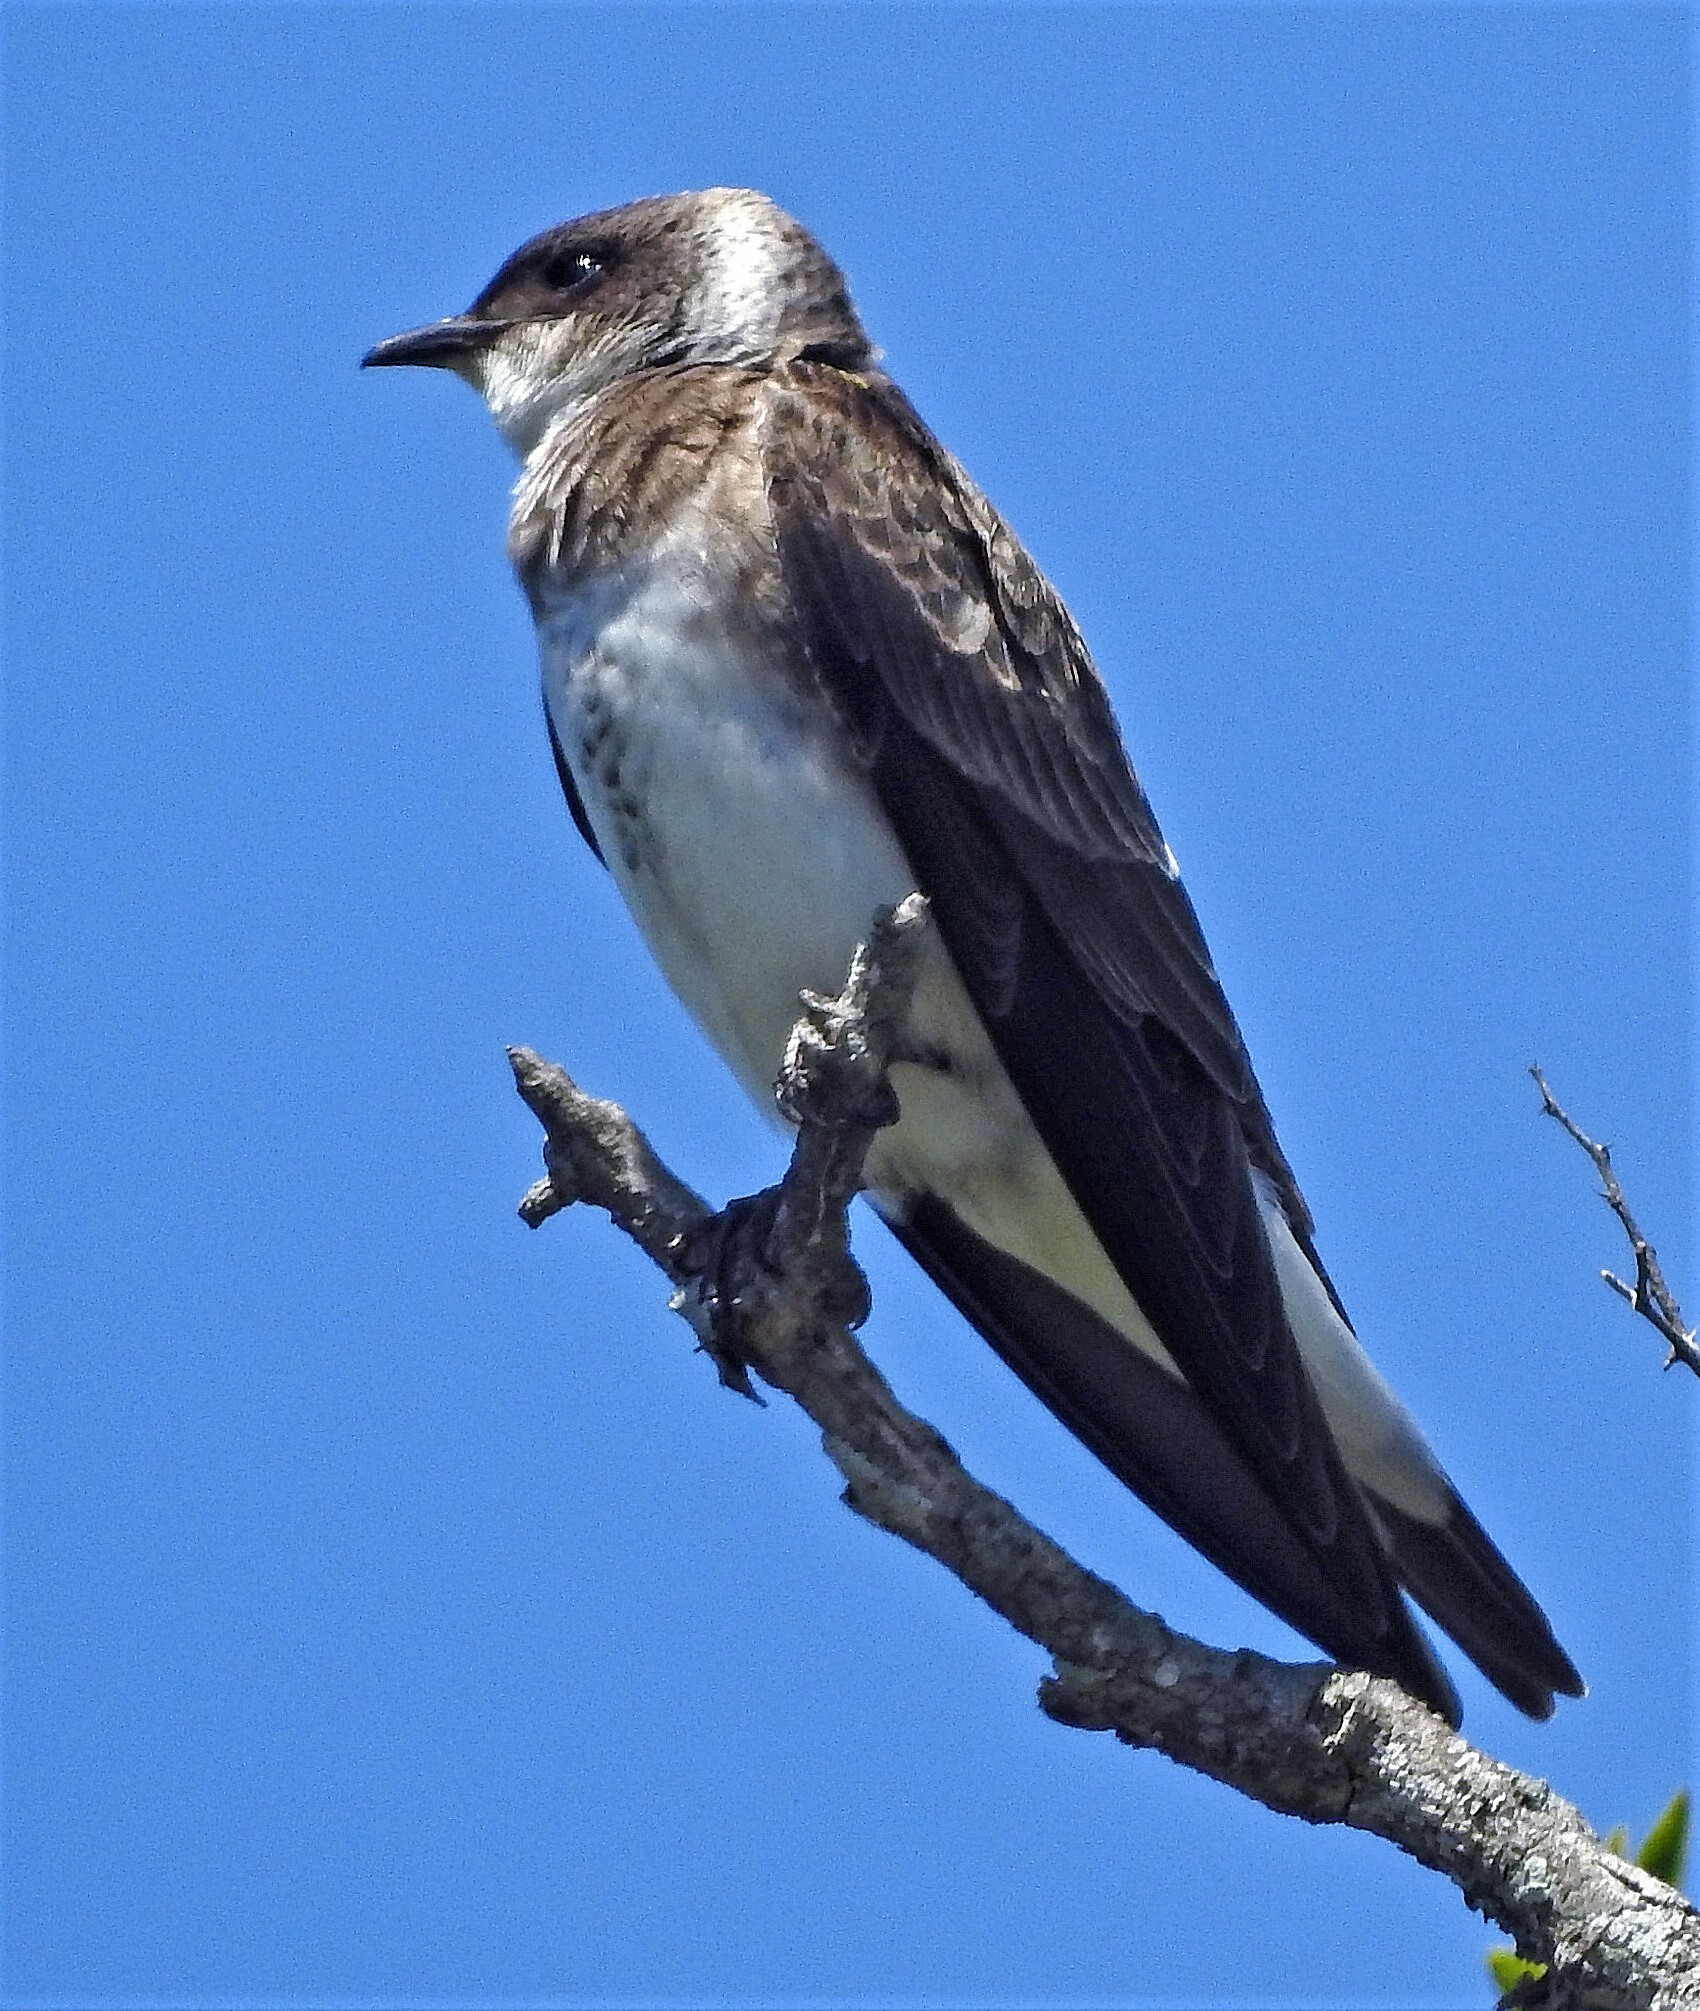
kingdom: Animalia
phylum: Chordata
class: Aves
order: Passeriformes
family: Hirundinidae
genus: Progne
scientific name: Progne tapera
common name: Brown-chested martin
